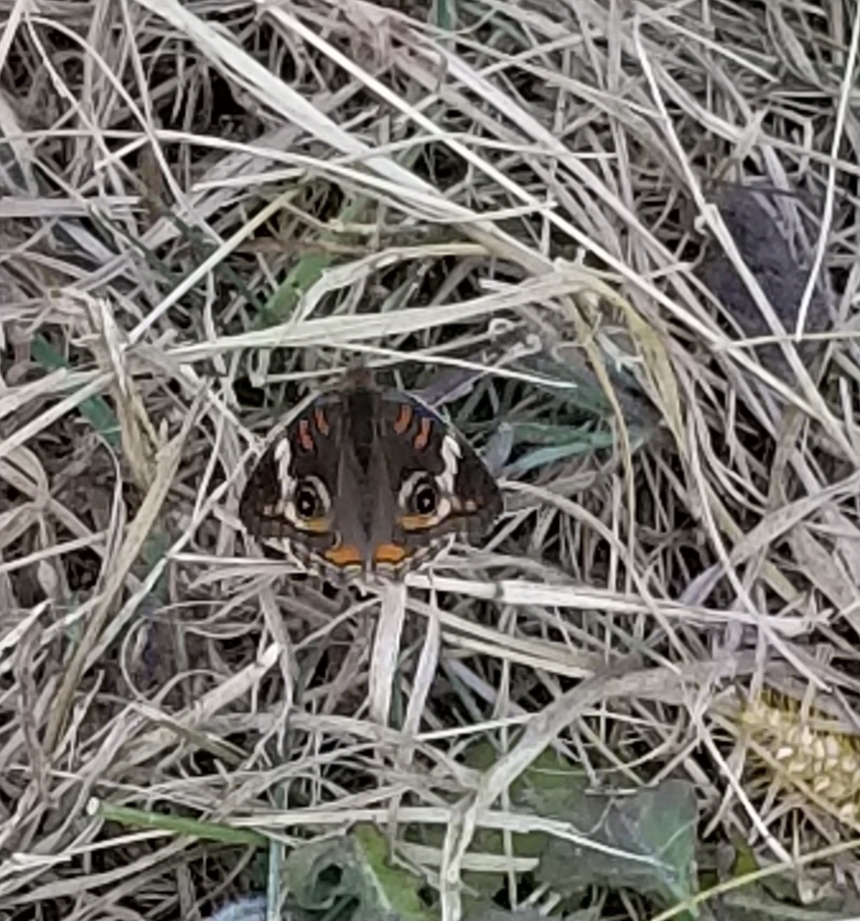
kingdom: Animalia
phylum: Arthropoda
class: Insecta
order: Lepidoptera
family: Nymphalidae
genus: Junonia
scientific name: Junonia coenia
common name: Common buckeye
